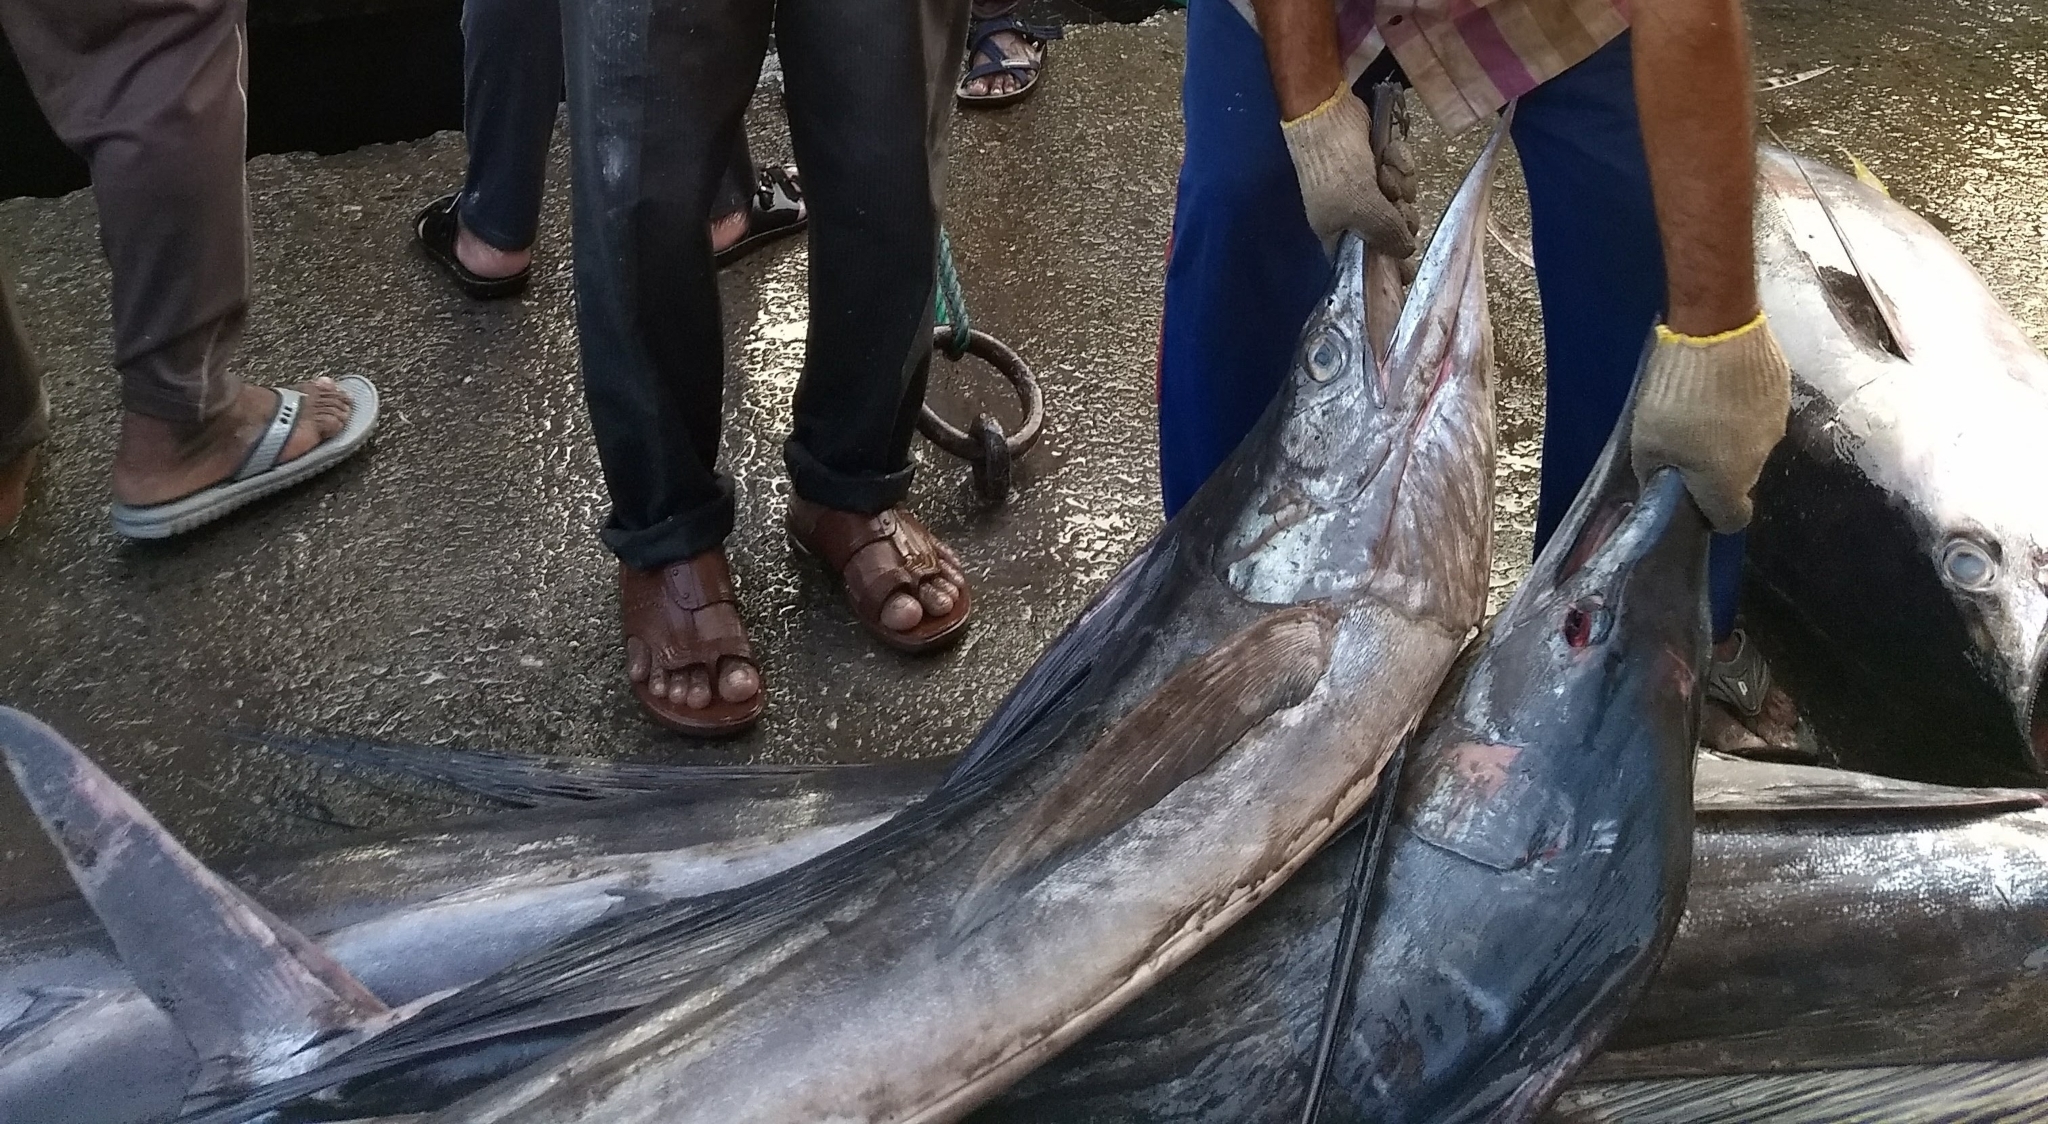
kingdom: Animalia
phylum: Chordata
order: Perciformes
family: Istiophoridae
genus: Istiophorus
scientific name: Istiophorus platypterus
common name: Sailfish
